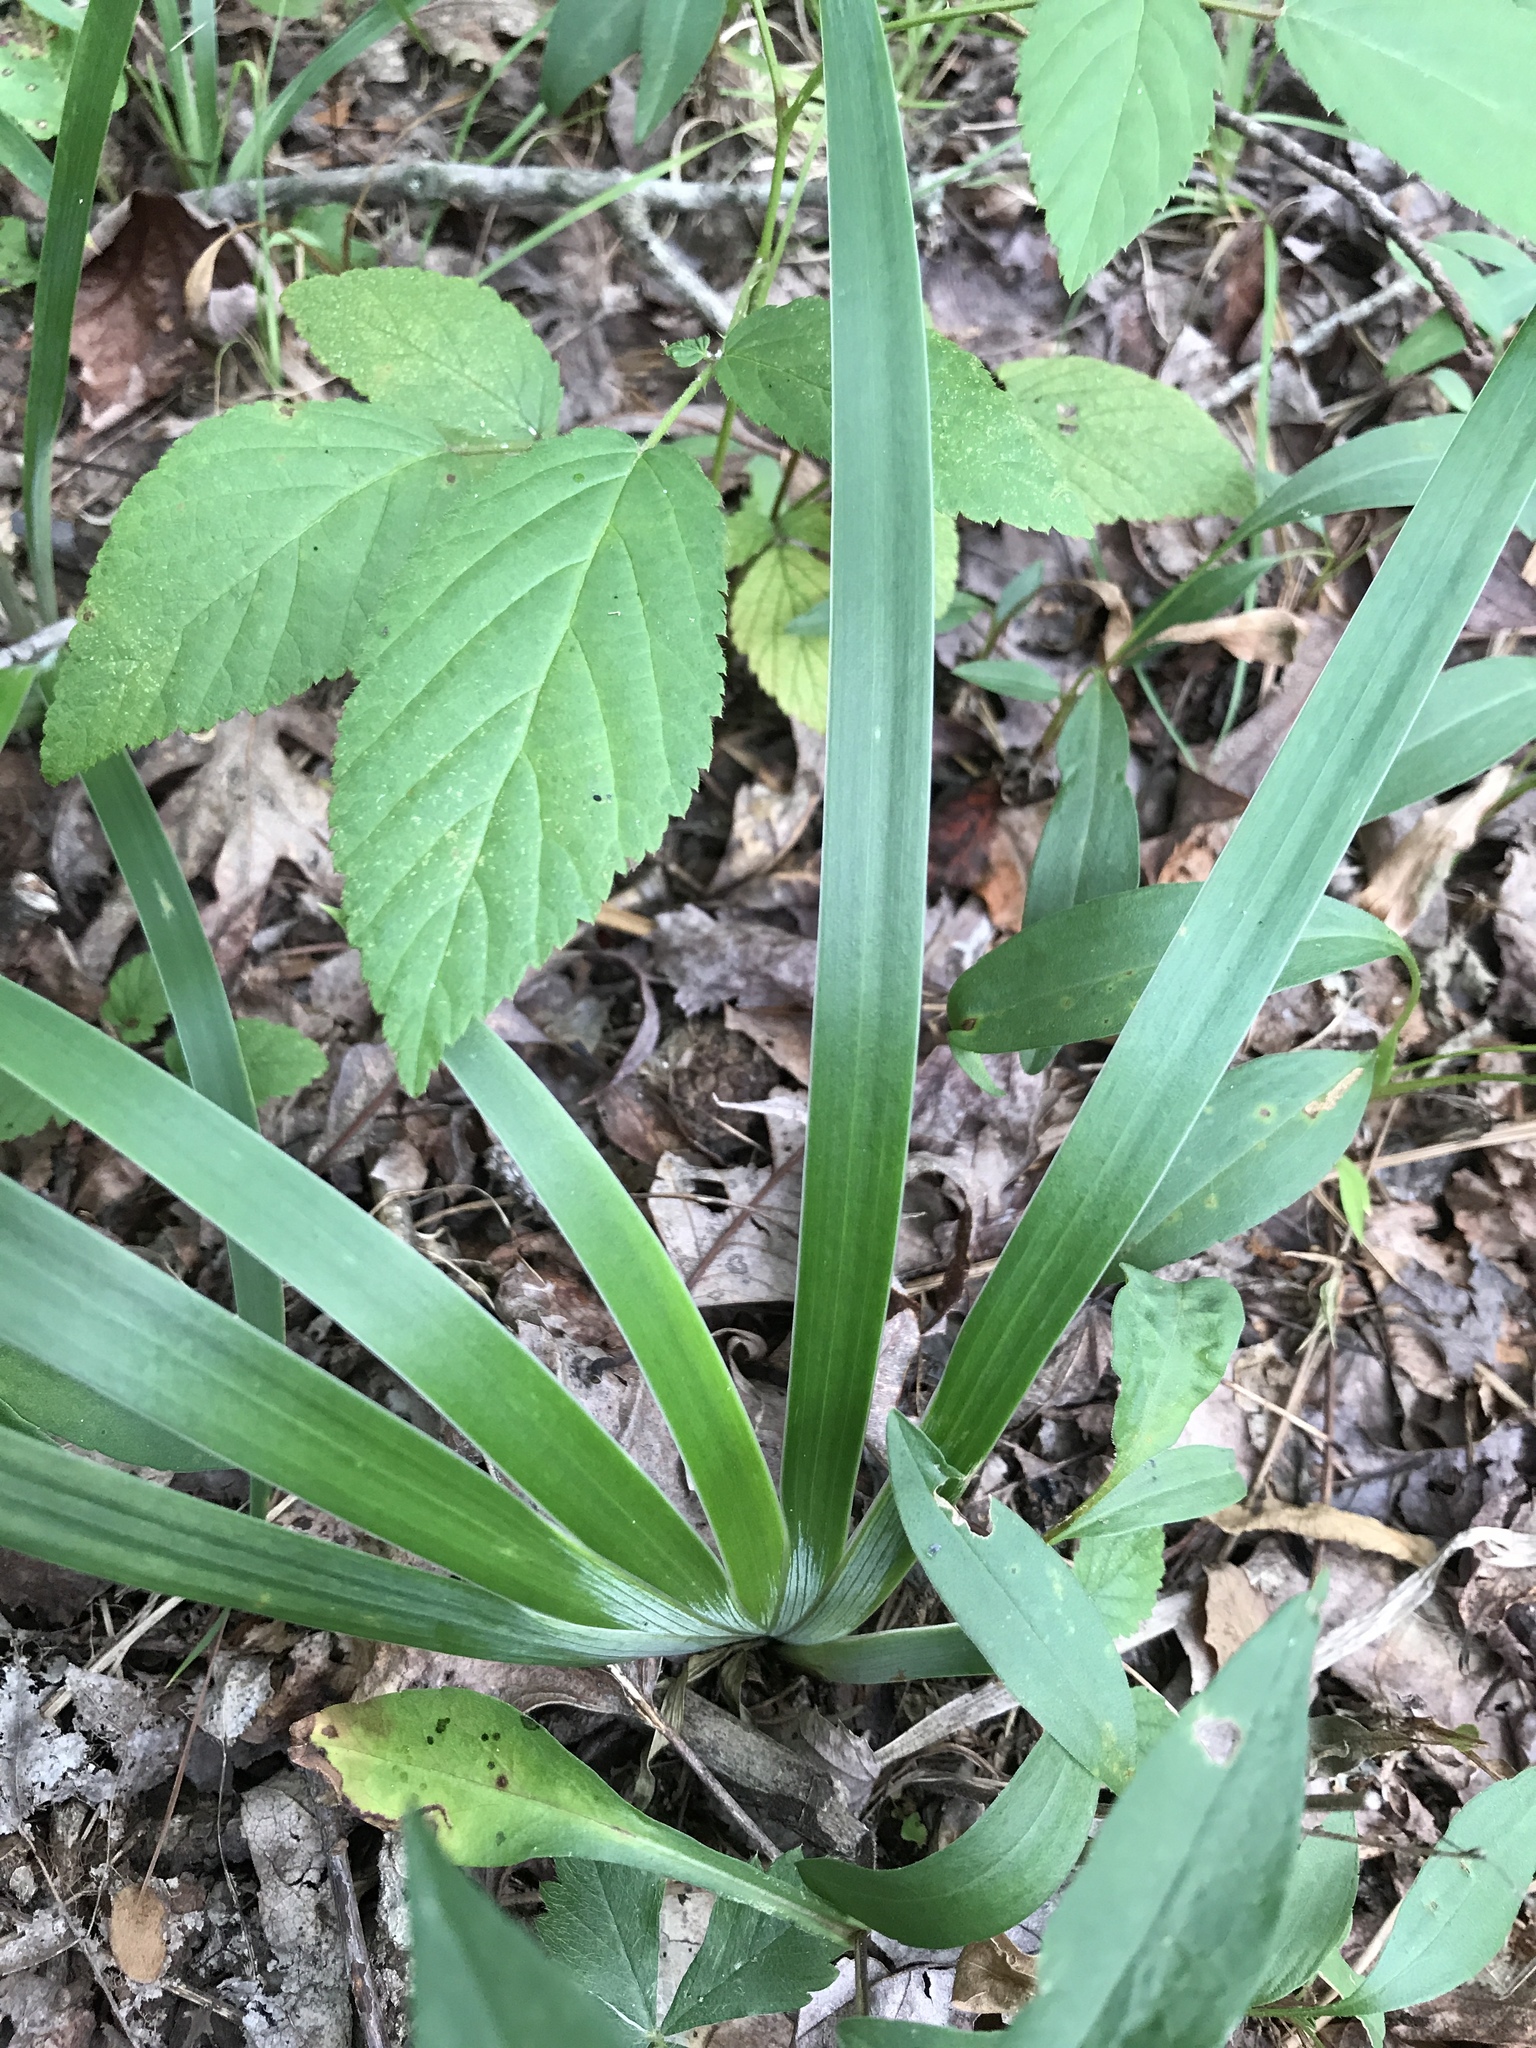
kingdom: Plantae
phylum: Tracheophyta
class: Liliopsida
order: Asparagales
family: Iridaceae
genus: Iris
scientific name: Iris verna
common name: Dwarf iris
